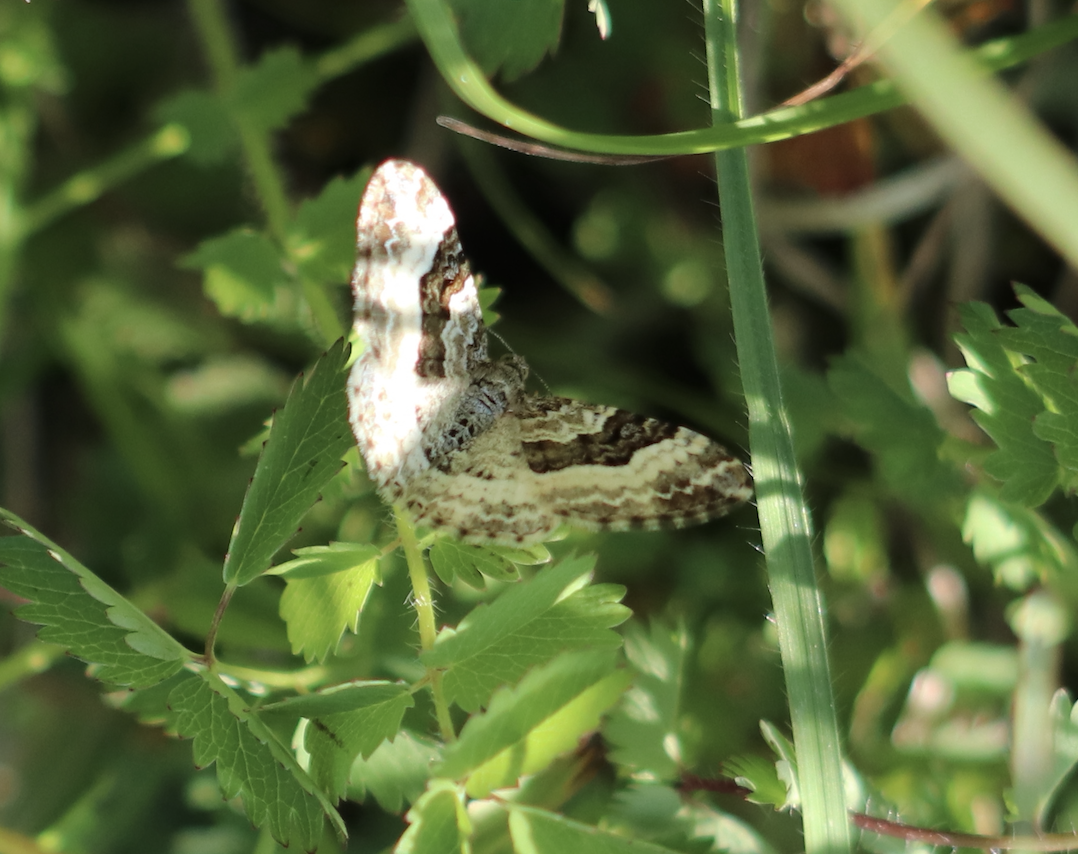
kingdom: Animalia
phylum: Arthropoda
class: Insecta
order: Lepidoptera
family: Geometridae
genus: Epirrhoe
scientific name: Epirrhoe alternata
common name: Common carpet
